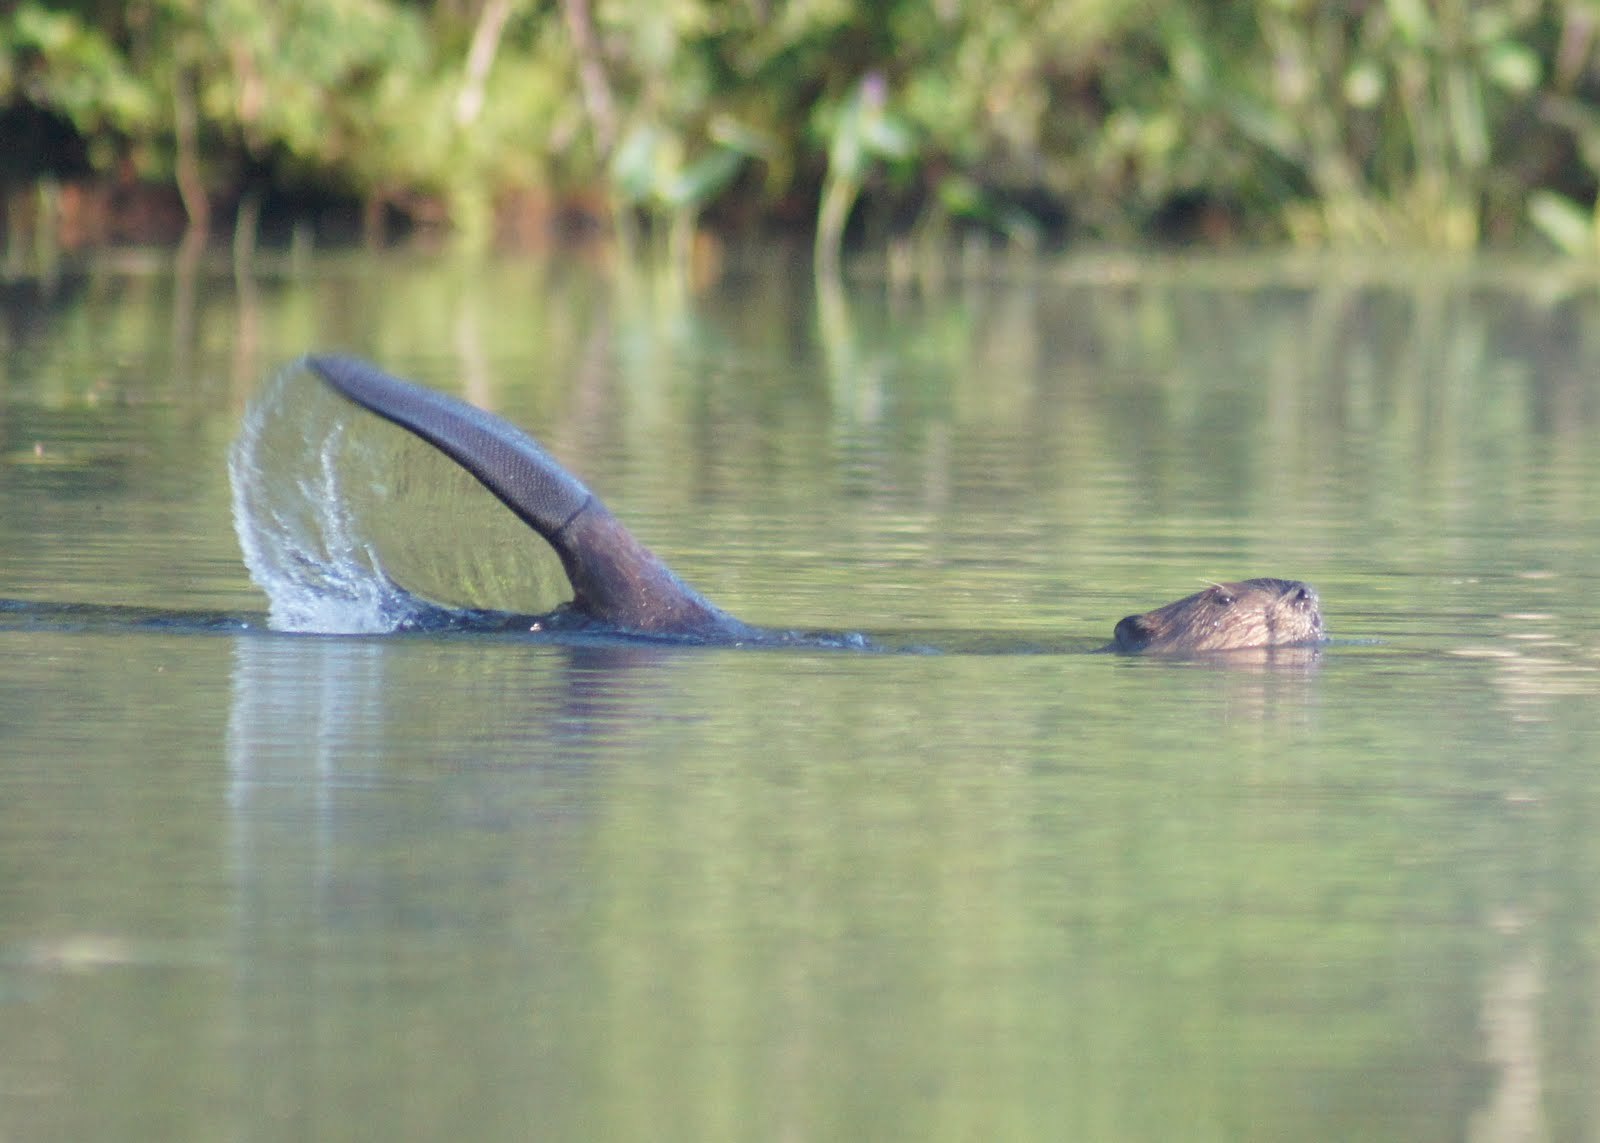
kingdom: Animalia
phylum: Chordata
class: Mammalia
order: Rodentia
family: Castoridae
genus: Castor
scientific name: Castor canadensis
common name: American beaver
